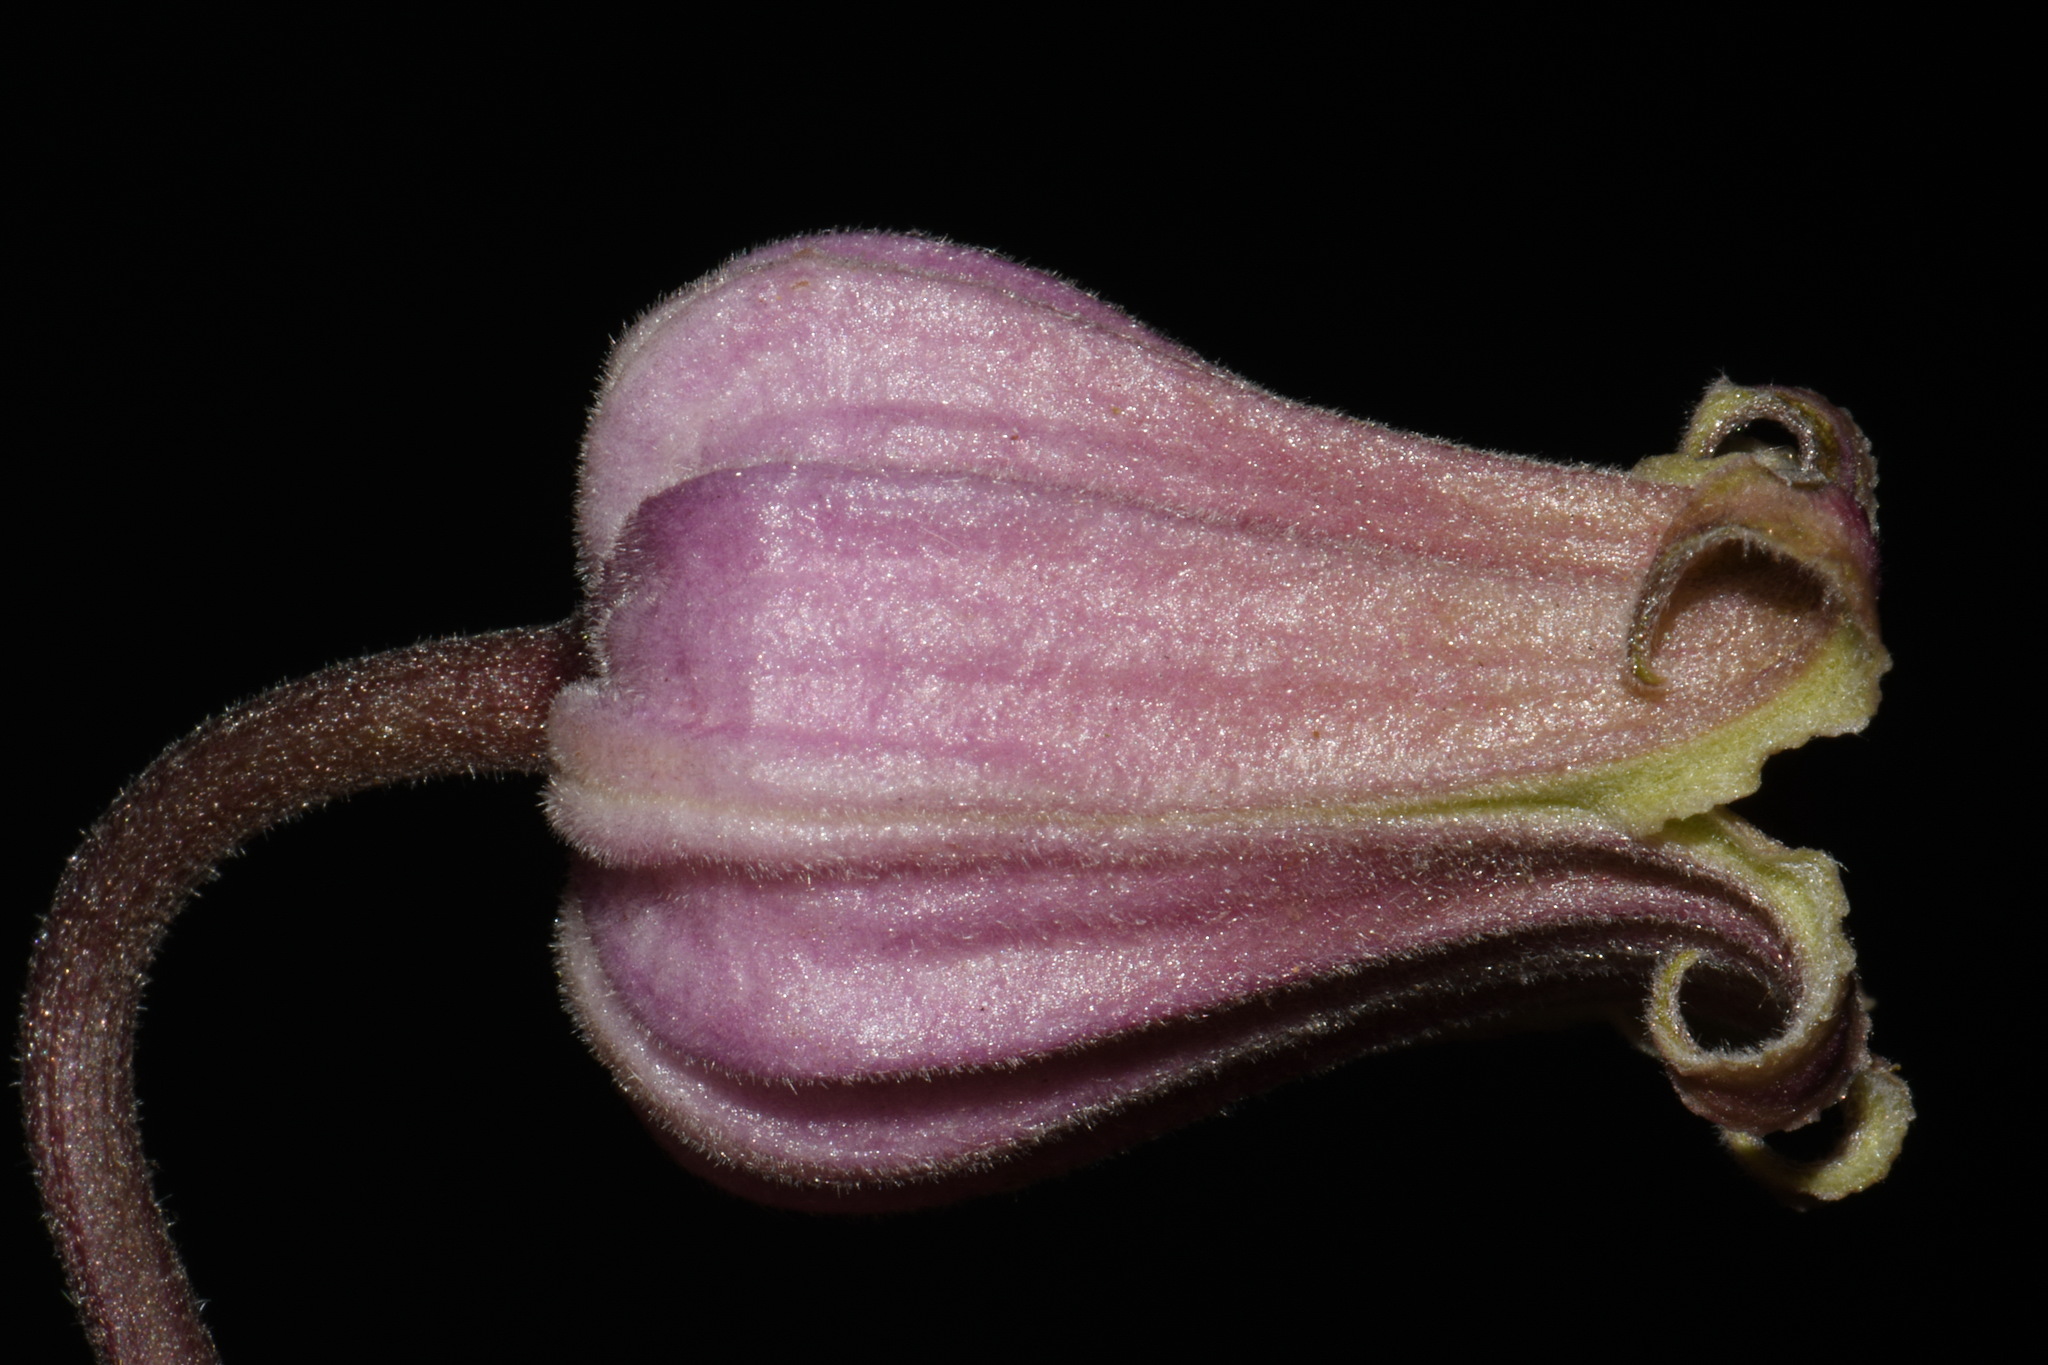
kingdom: Plantae
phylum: Tracheophyta
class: Magnoliopsida
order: Ranunculales
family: Ranunculaceae
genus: Clematis
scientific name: Clematis vinacea
